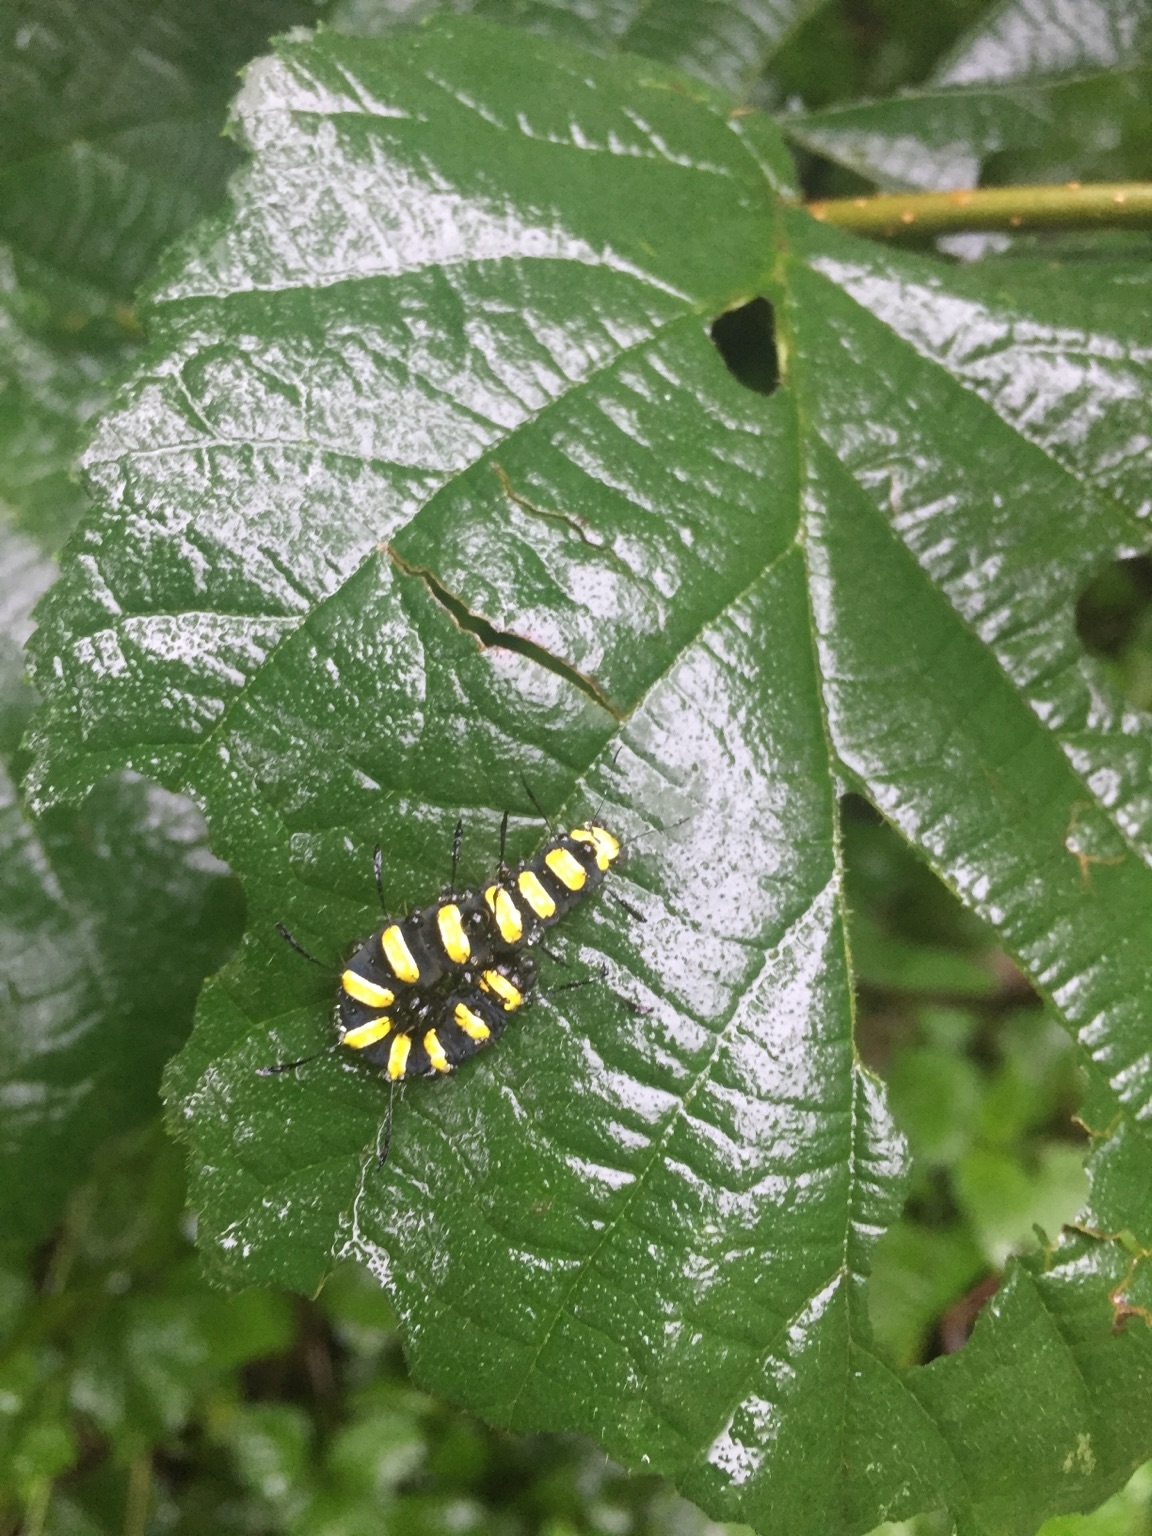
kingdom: Animalia
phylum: Arthropoda
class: Insecta
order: Lepidoptera
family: Noctuidae
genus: Acronicta
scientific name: Acronicta alni
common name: Alder moth
